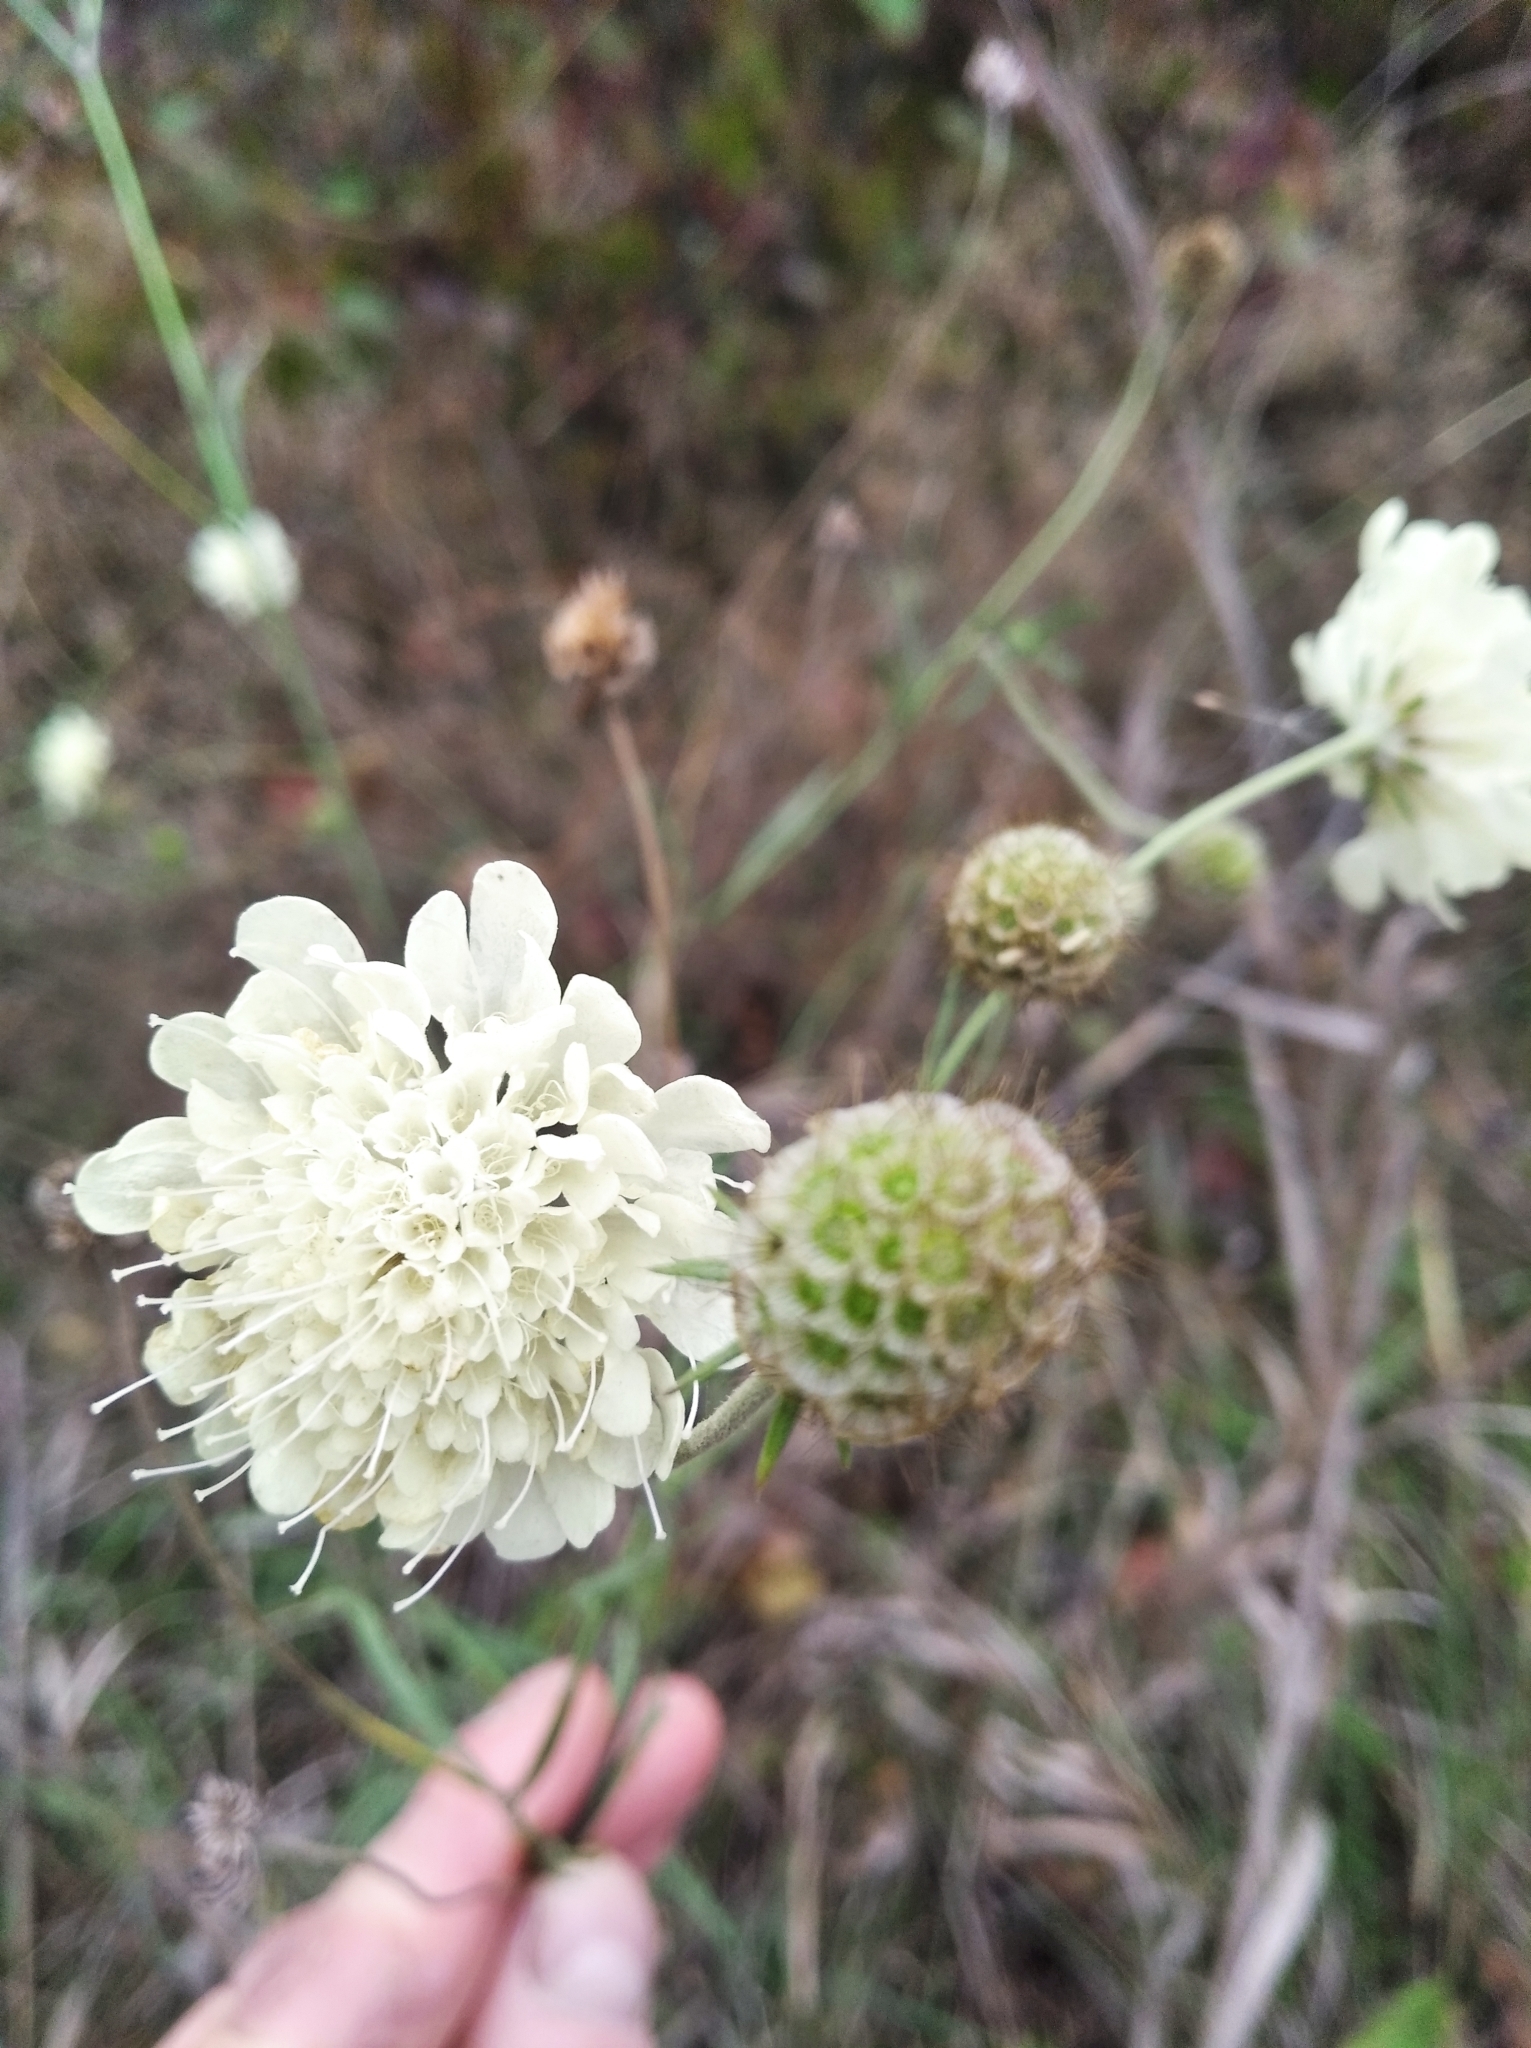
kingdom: Plantae
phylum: Tracheophyta
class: Magnoliopsida
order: Dipsacales
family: Caprifoliaceae
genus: Scabiosa
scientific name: Scabiosa ochroleuca
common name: Cream pincushions
